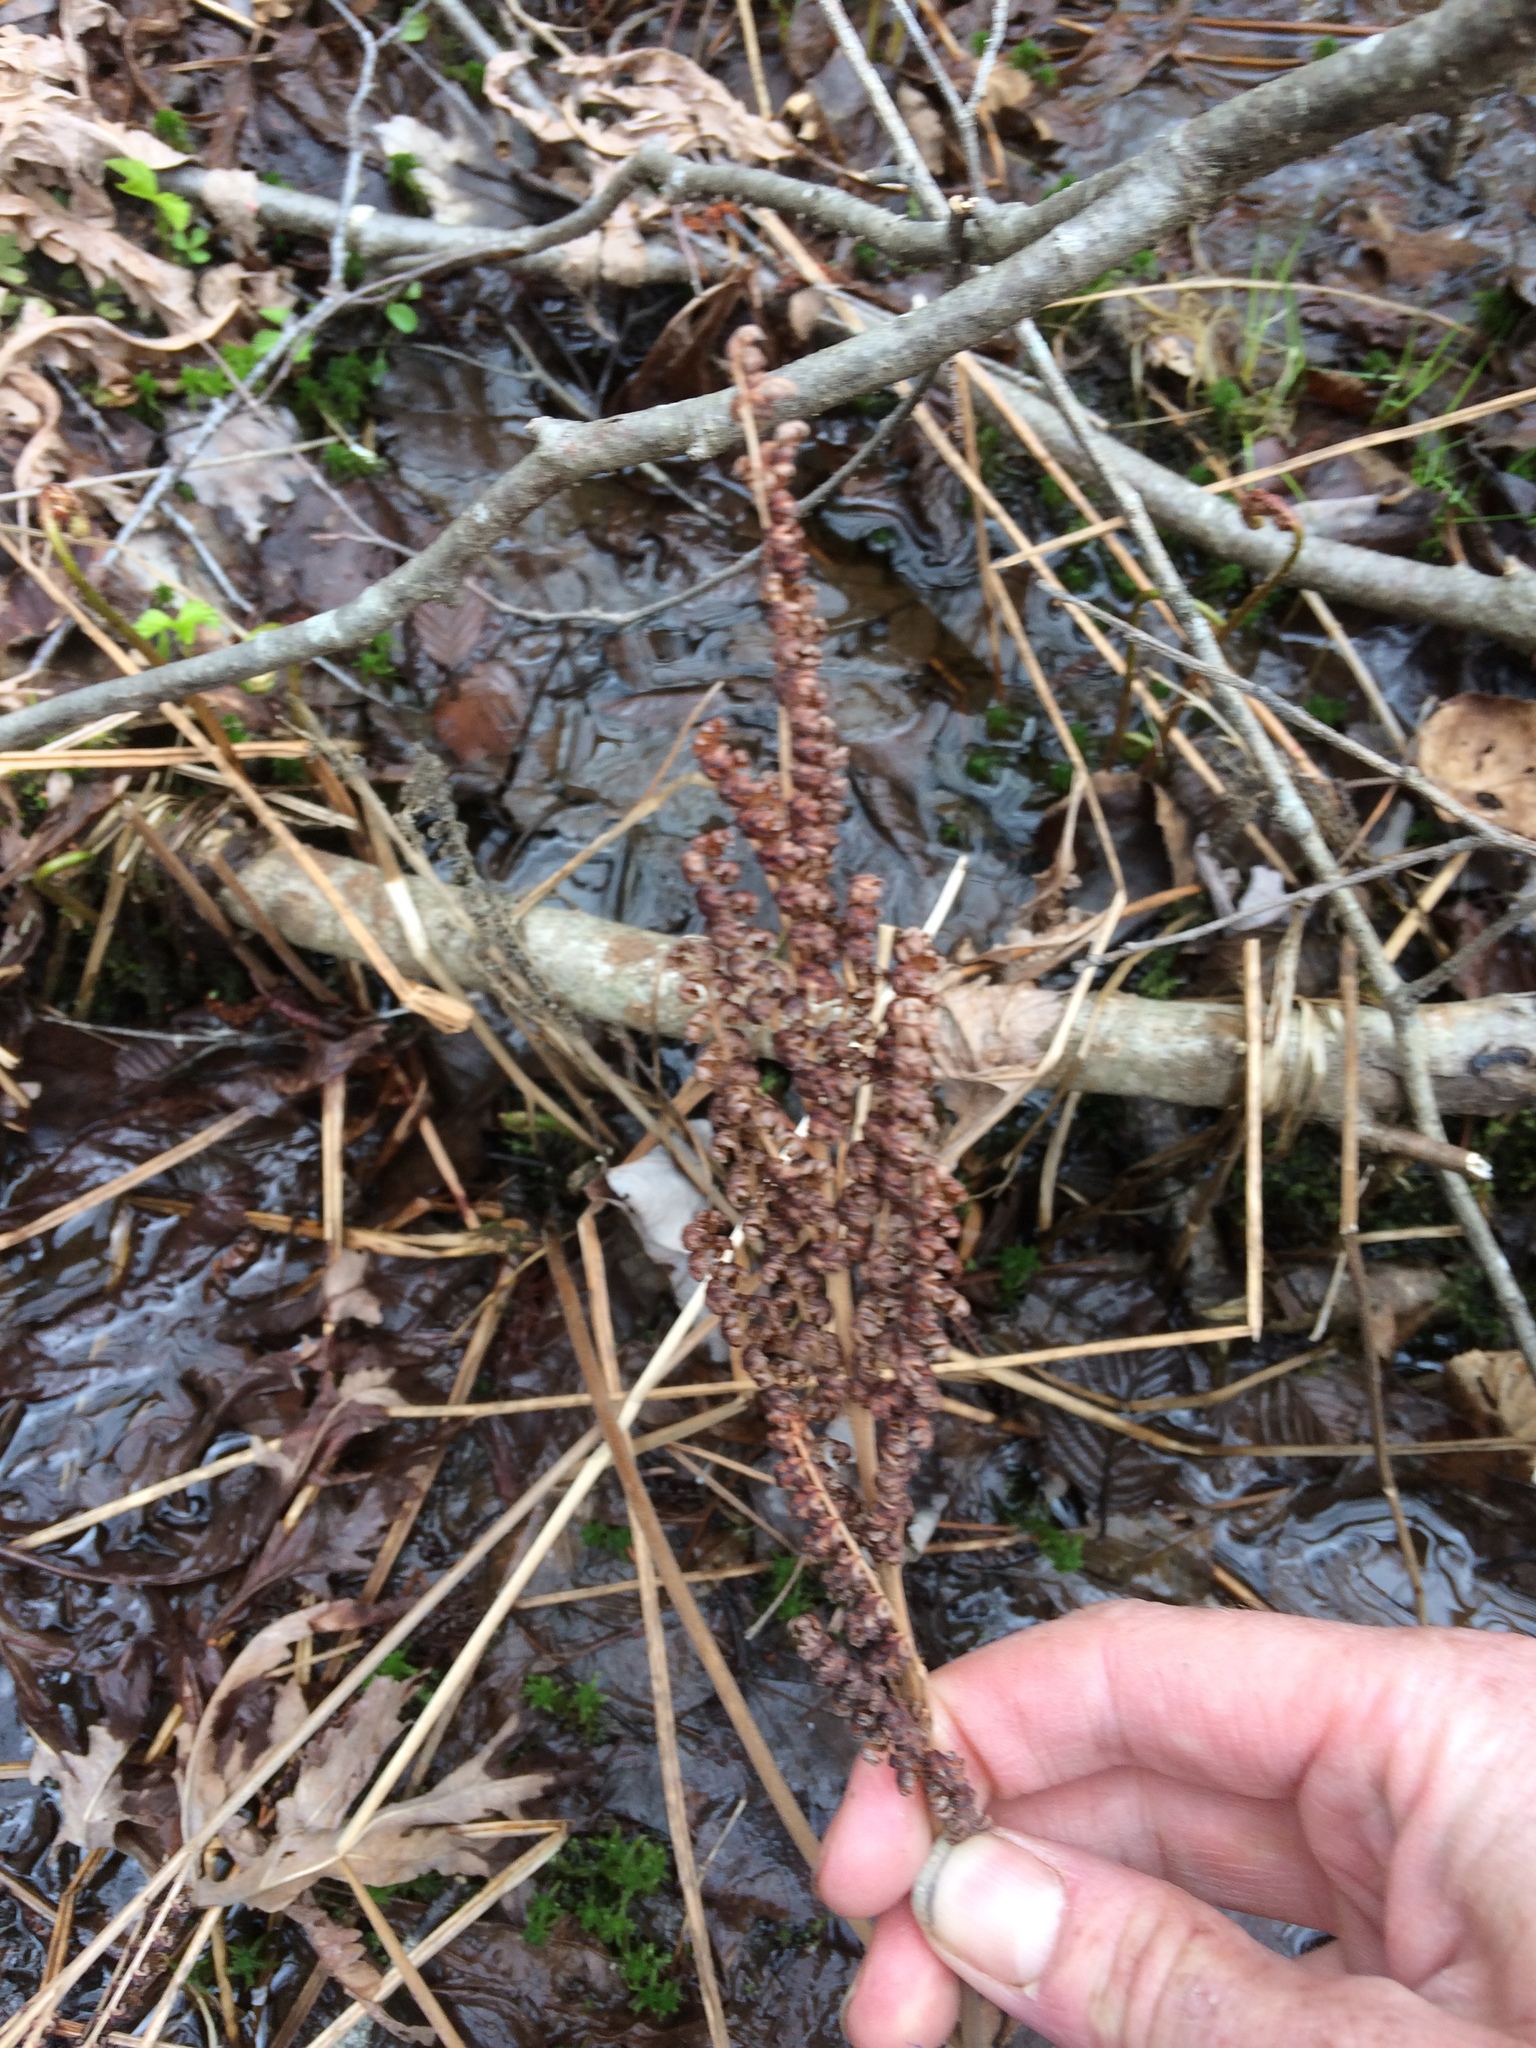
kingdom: Plantae
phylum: Tracheophyta
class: Polypodiopsida
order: Polypodiales
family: Onocleaceae
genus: Onoclea
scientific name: Onoclea sensibilis
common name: Sensitive fern
